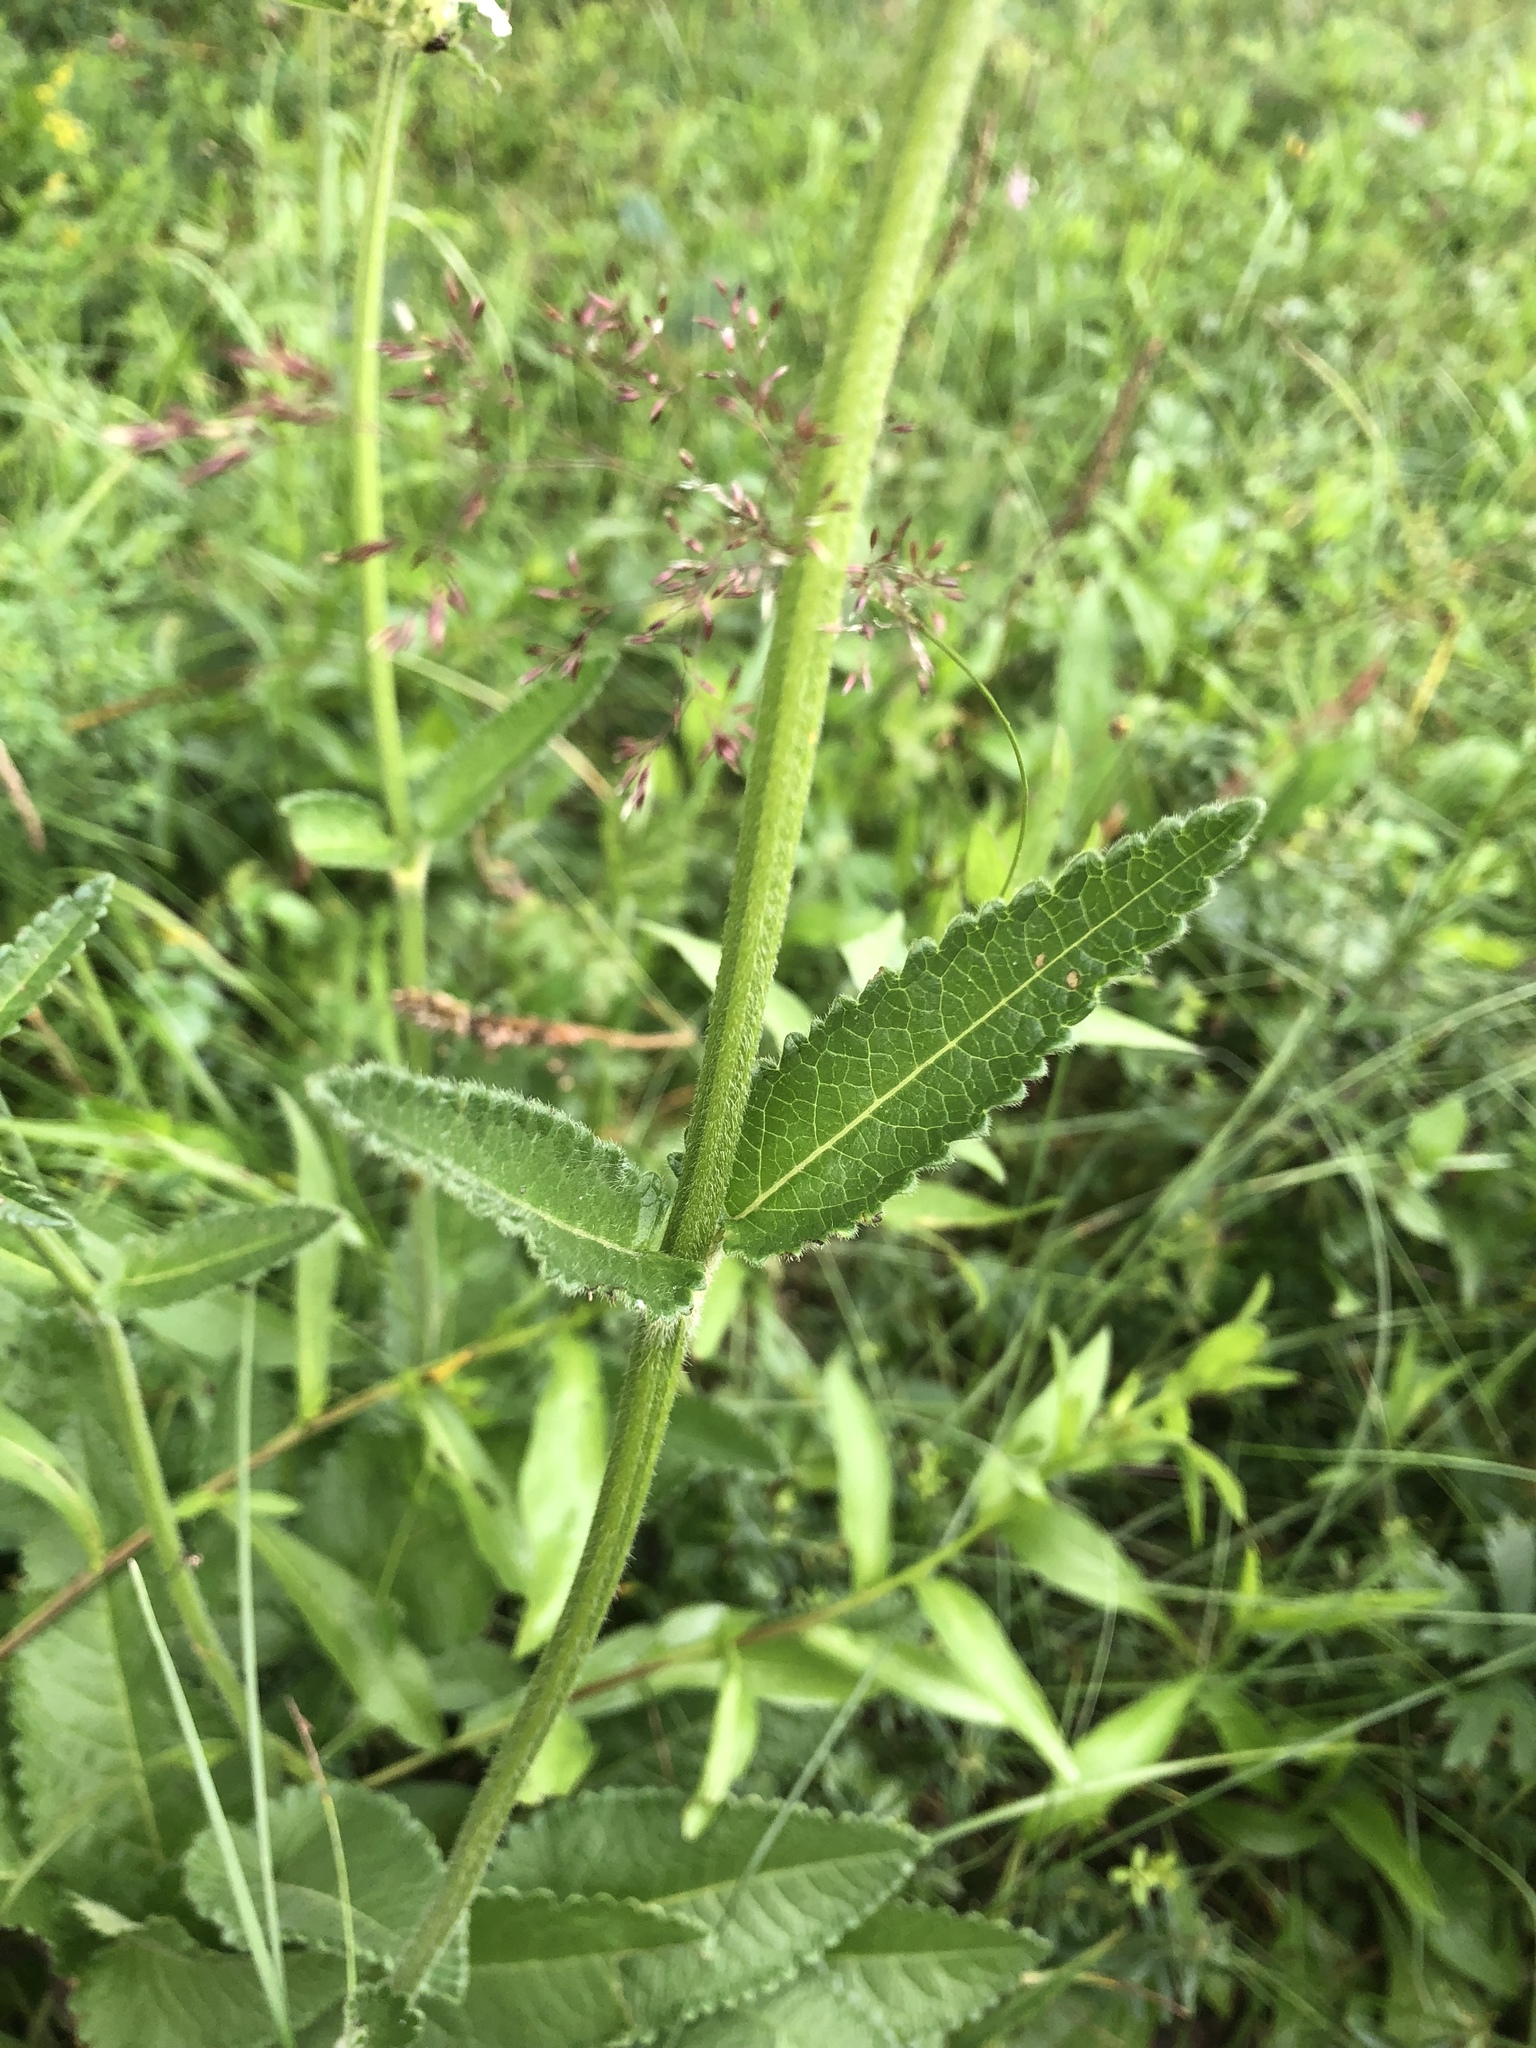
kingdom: Plantae
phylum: Tracheophyta
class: Magnoliopsida
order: Lamiales
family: Lamiaceae
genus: Betonica
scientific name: Betonica officinalis
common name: Bishop's-wort
